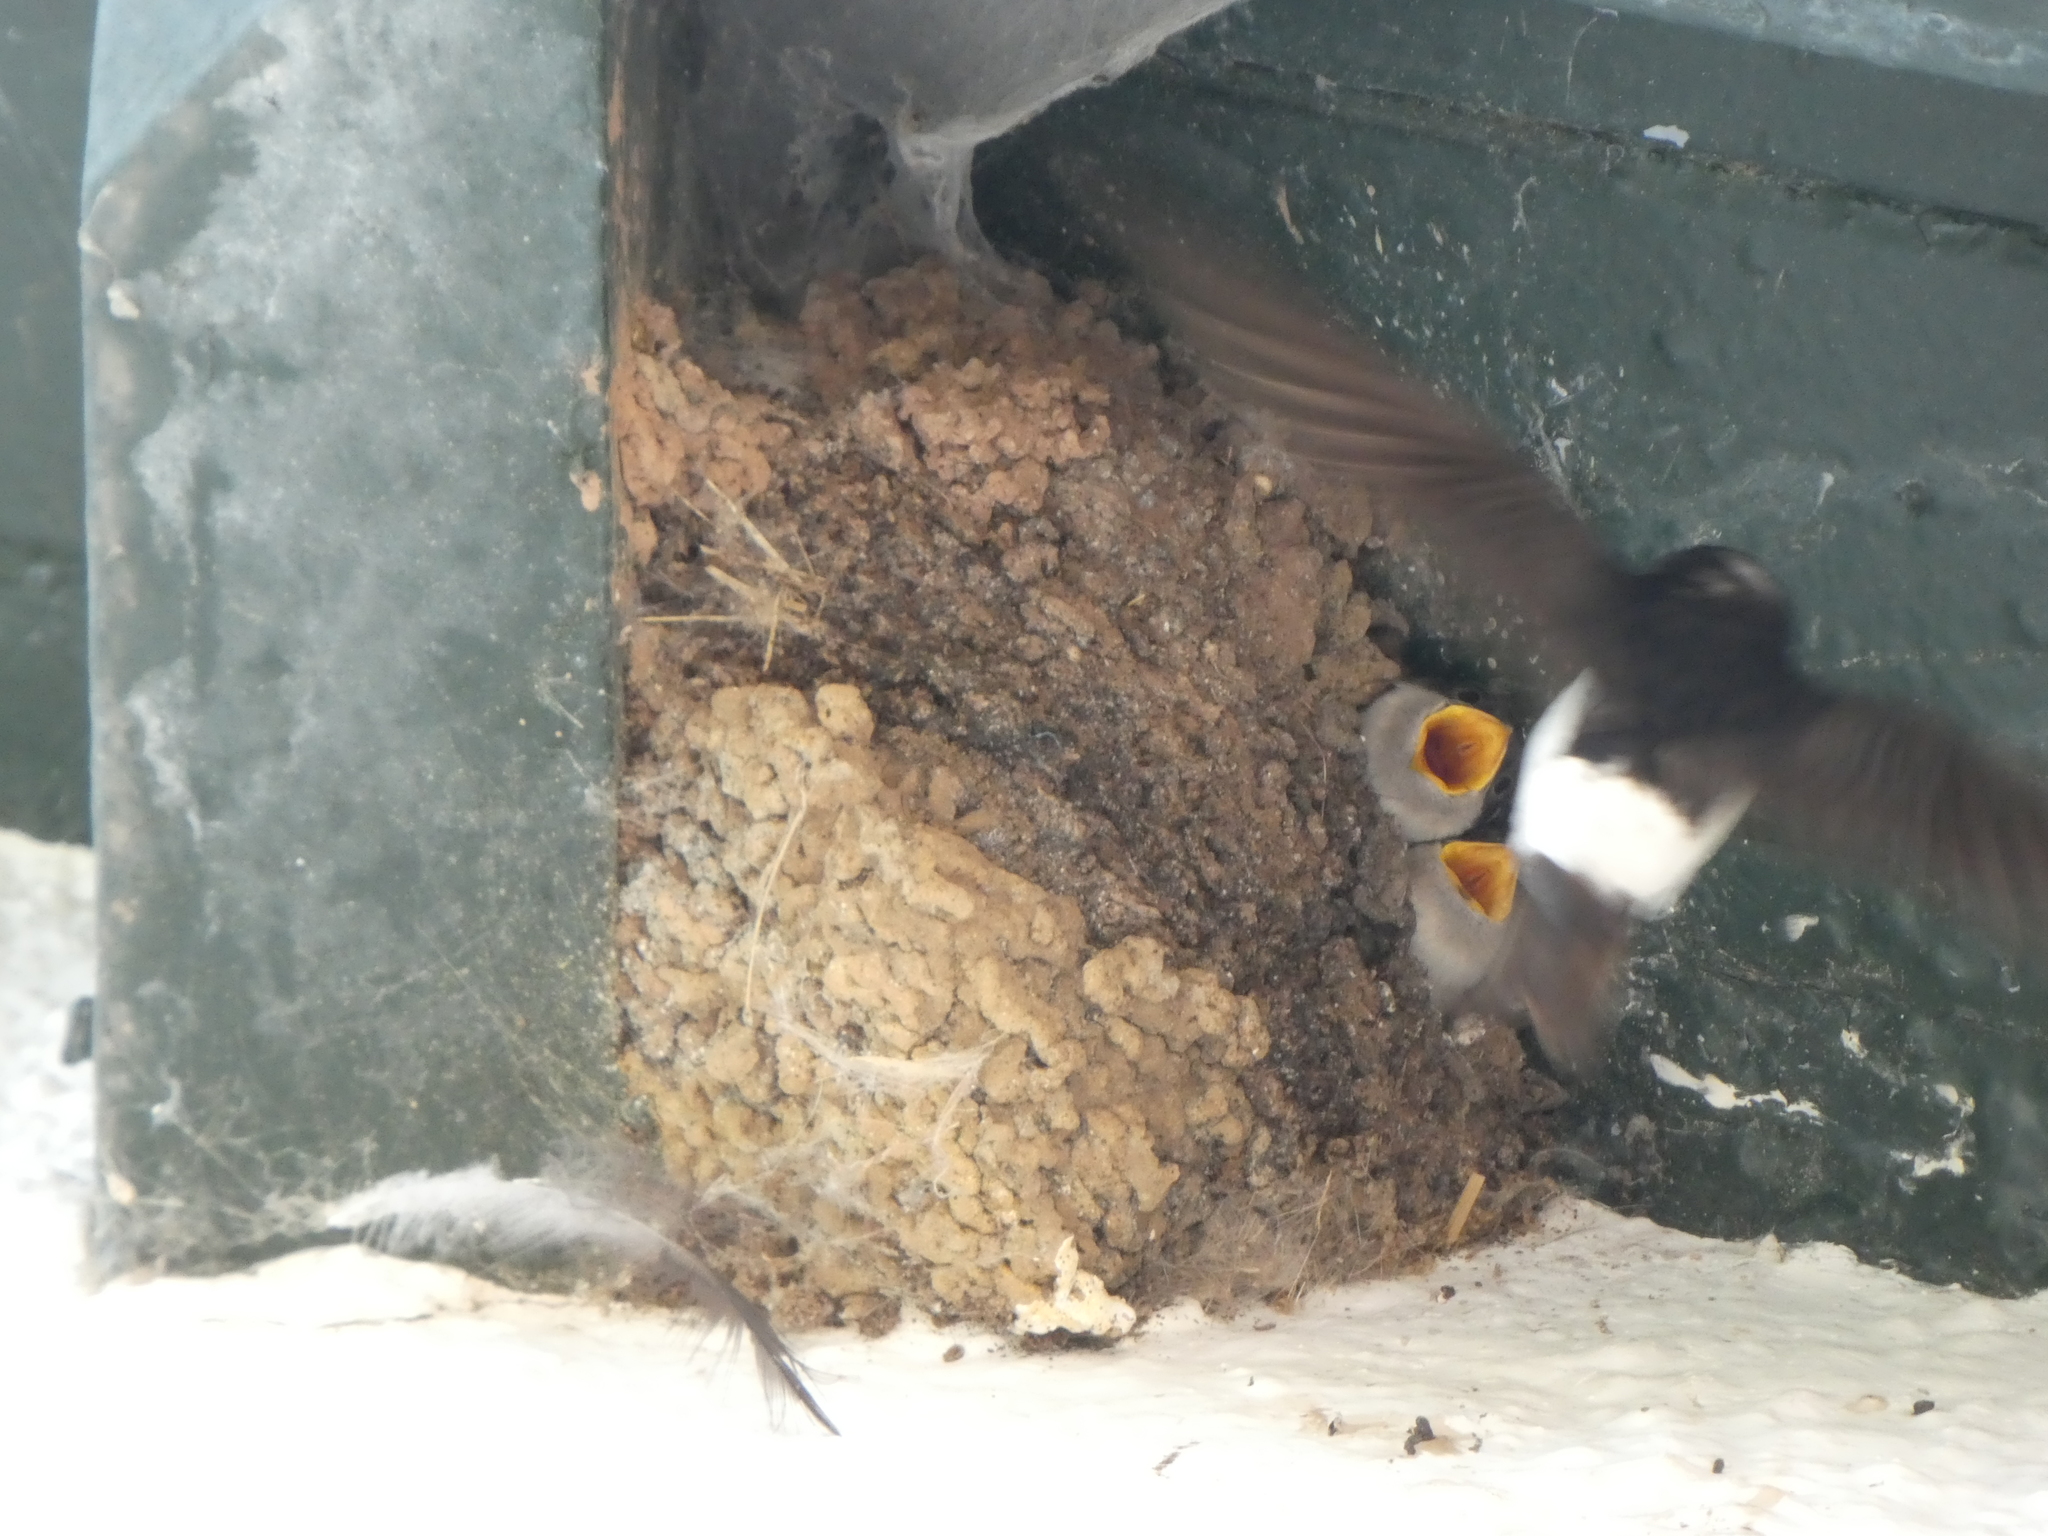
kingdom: Animalia
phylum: Chordata
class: Aves
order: Passeriformes
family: Hirundinidae
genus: Delichon
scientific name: Delichon urbicum
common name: Common house martin
